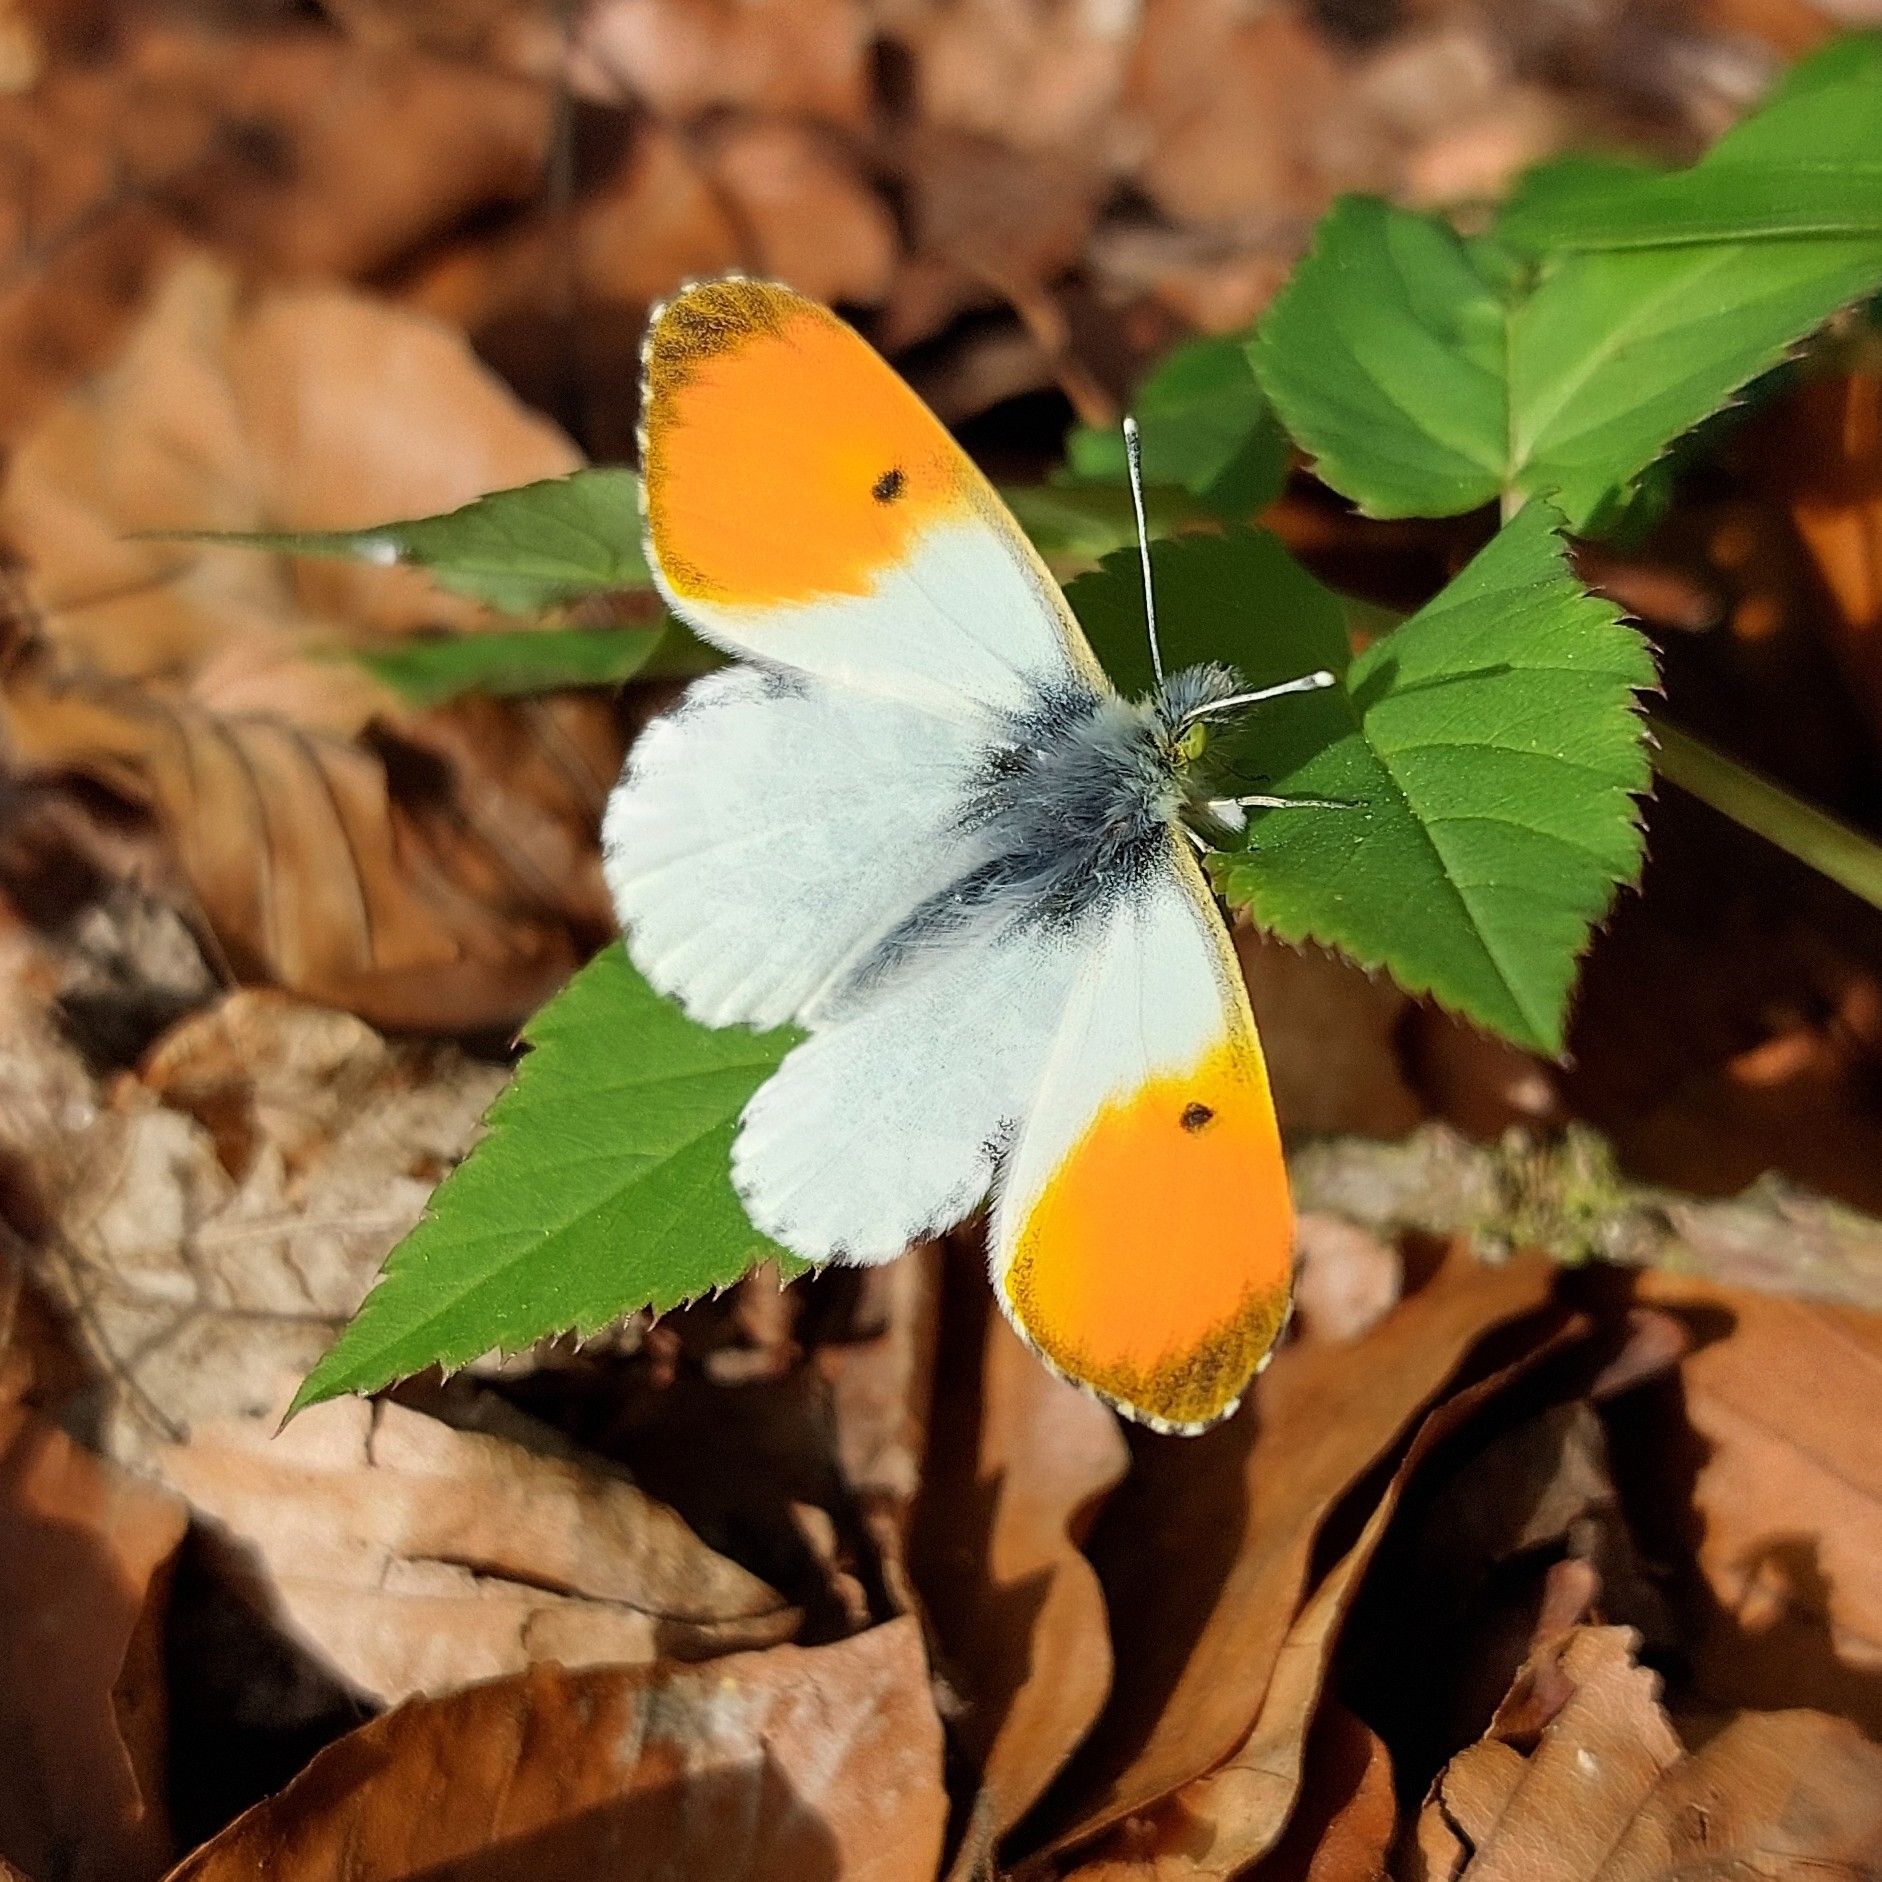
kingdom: Animalia
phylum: Arthropoda
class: Insecta
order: Lepidoptera
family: Pieridae
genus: Anthocharis
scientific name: Anthocharis cardamines
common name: Orange-tip
